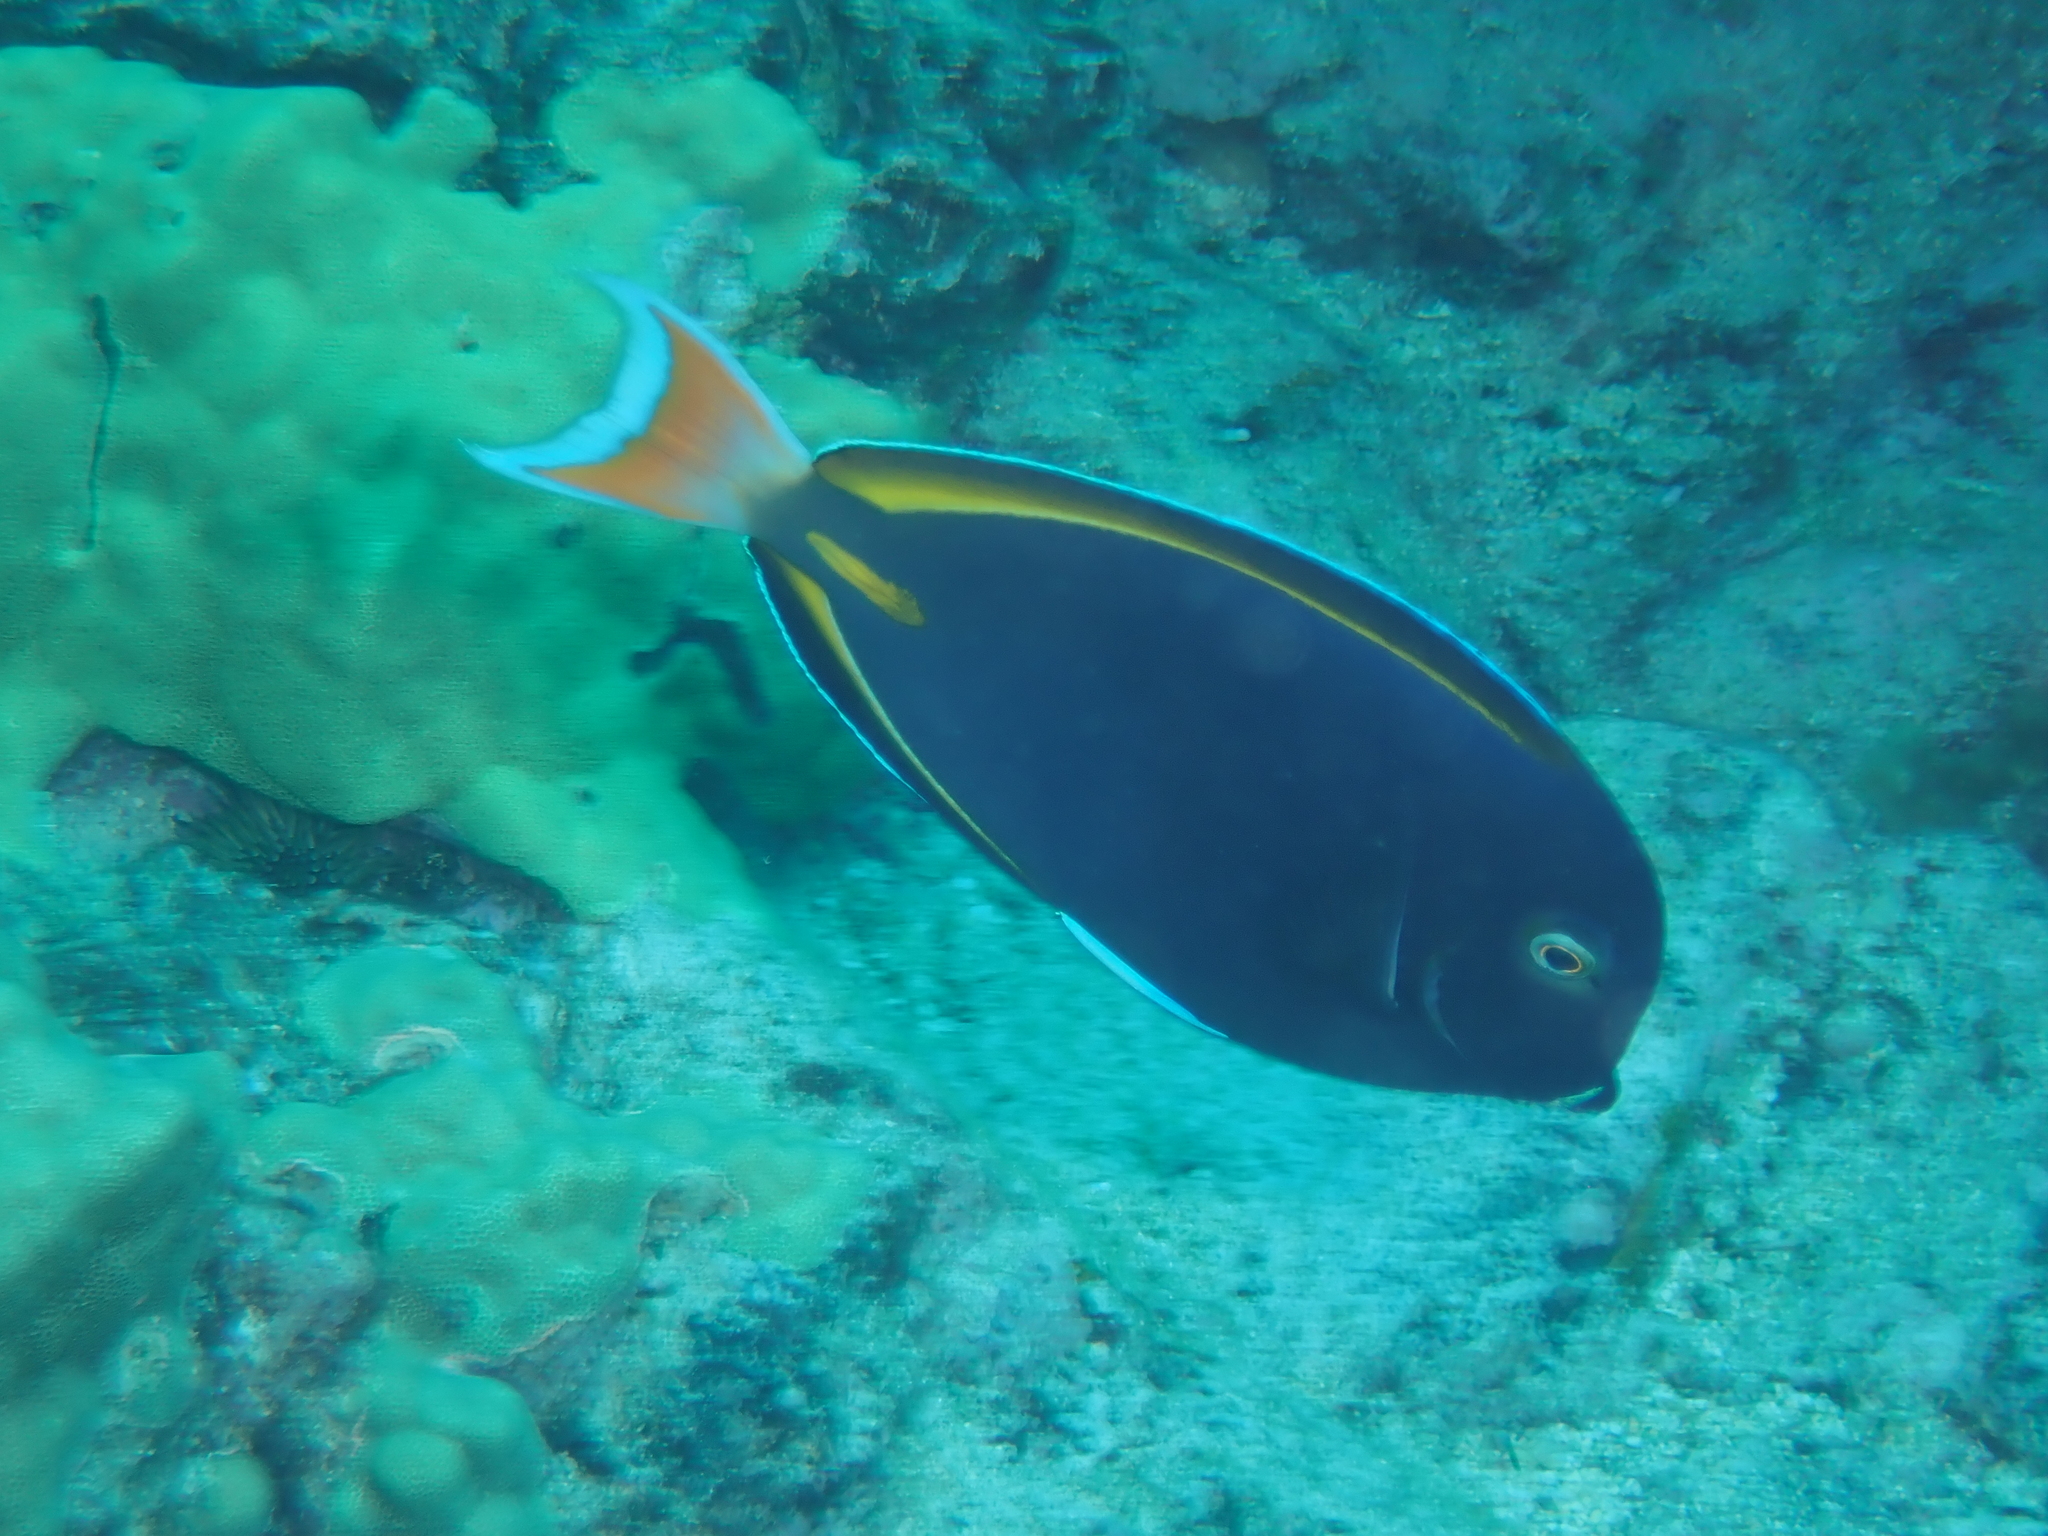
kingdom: Animalia
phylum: Chordata
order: Perciformes
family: Acanthuridae
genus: Acanthurus
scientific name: Acanthurus
